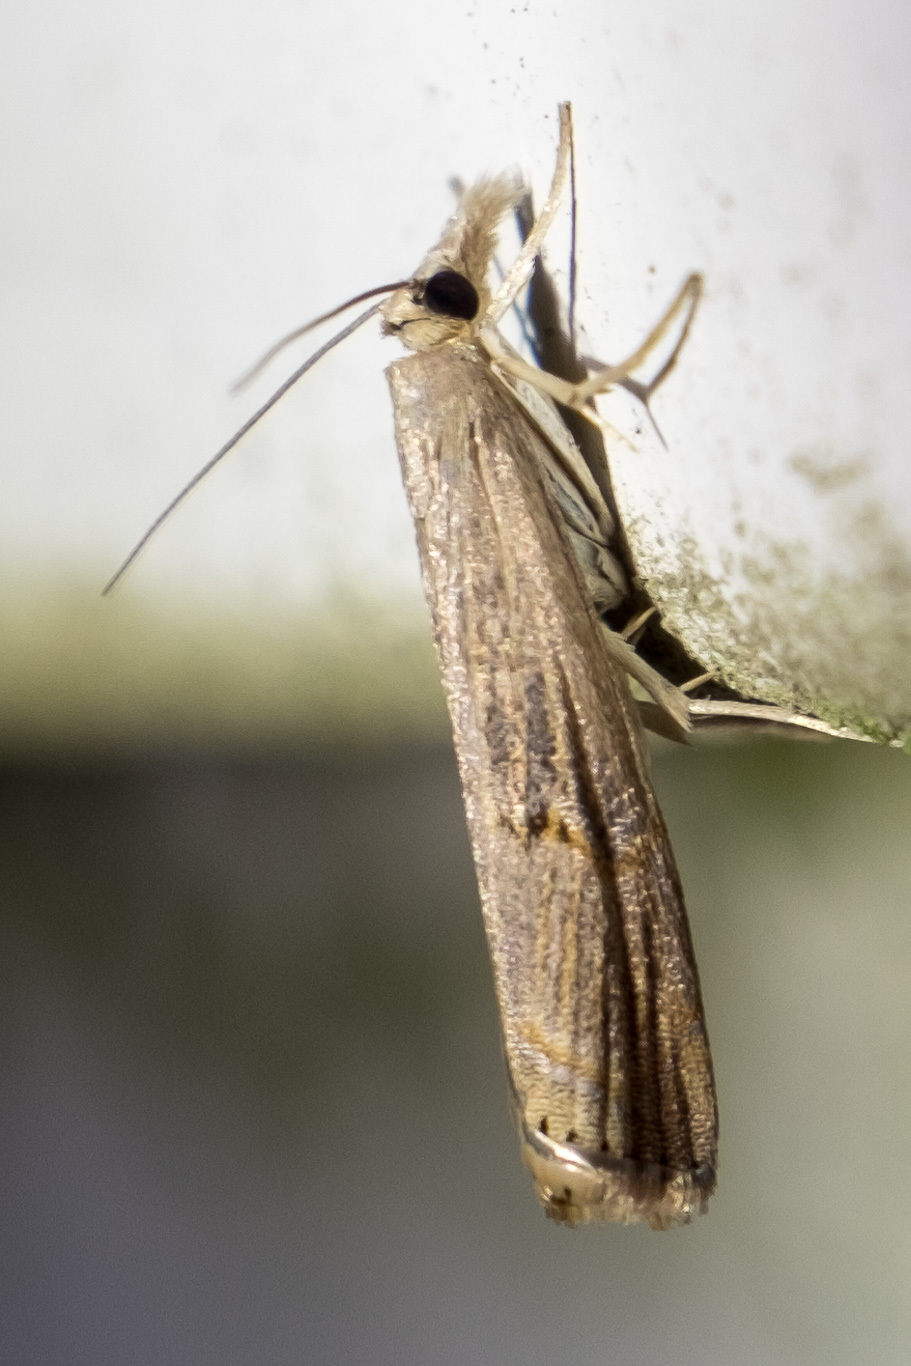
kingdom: Animalia
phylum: Arthropoda
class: Insecta
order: Lepidoptera
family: Crambidae
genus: Parapediasia
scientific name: Parapediasia teterellus
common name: Bluegrass webworm moth
